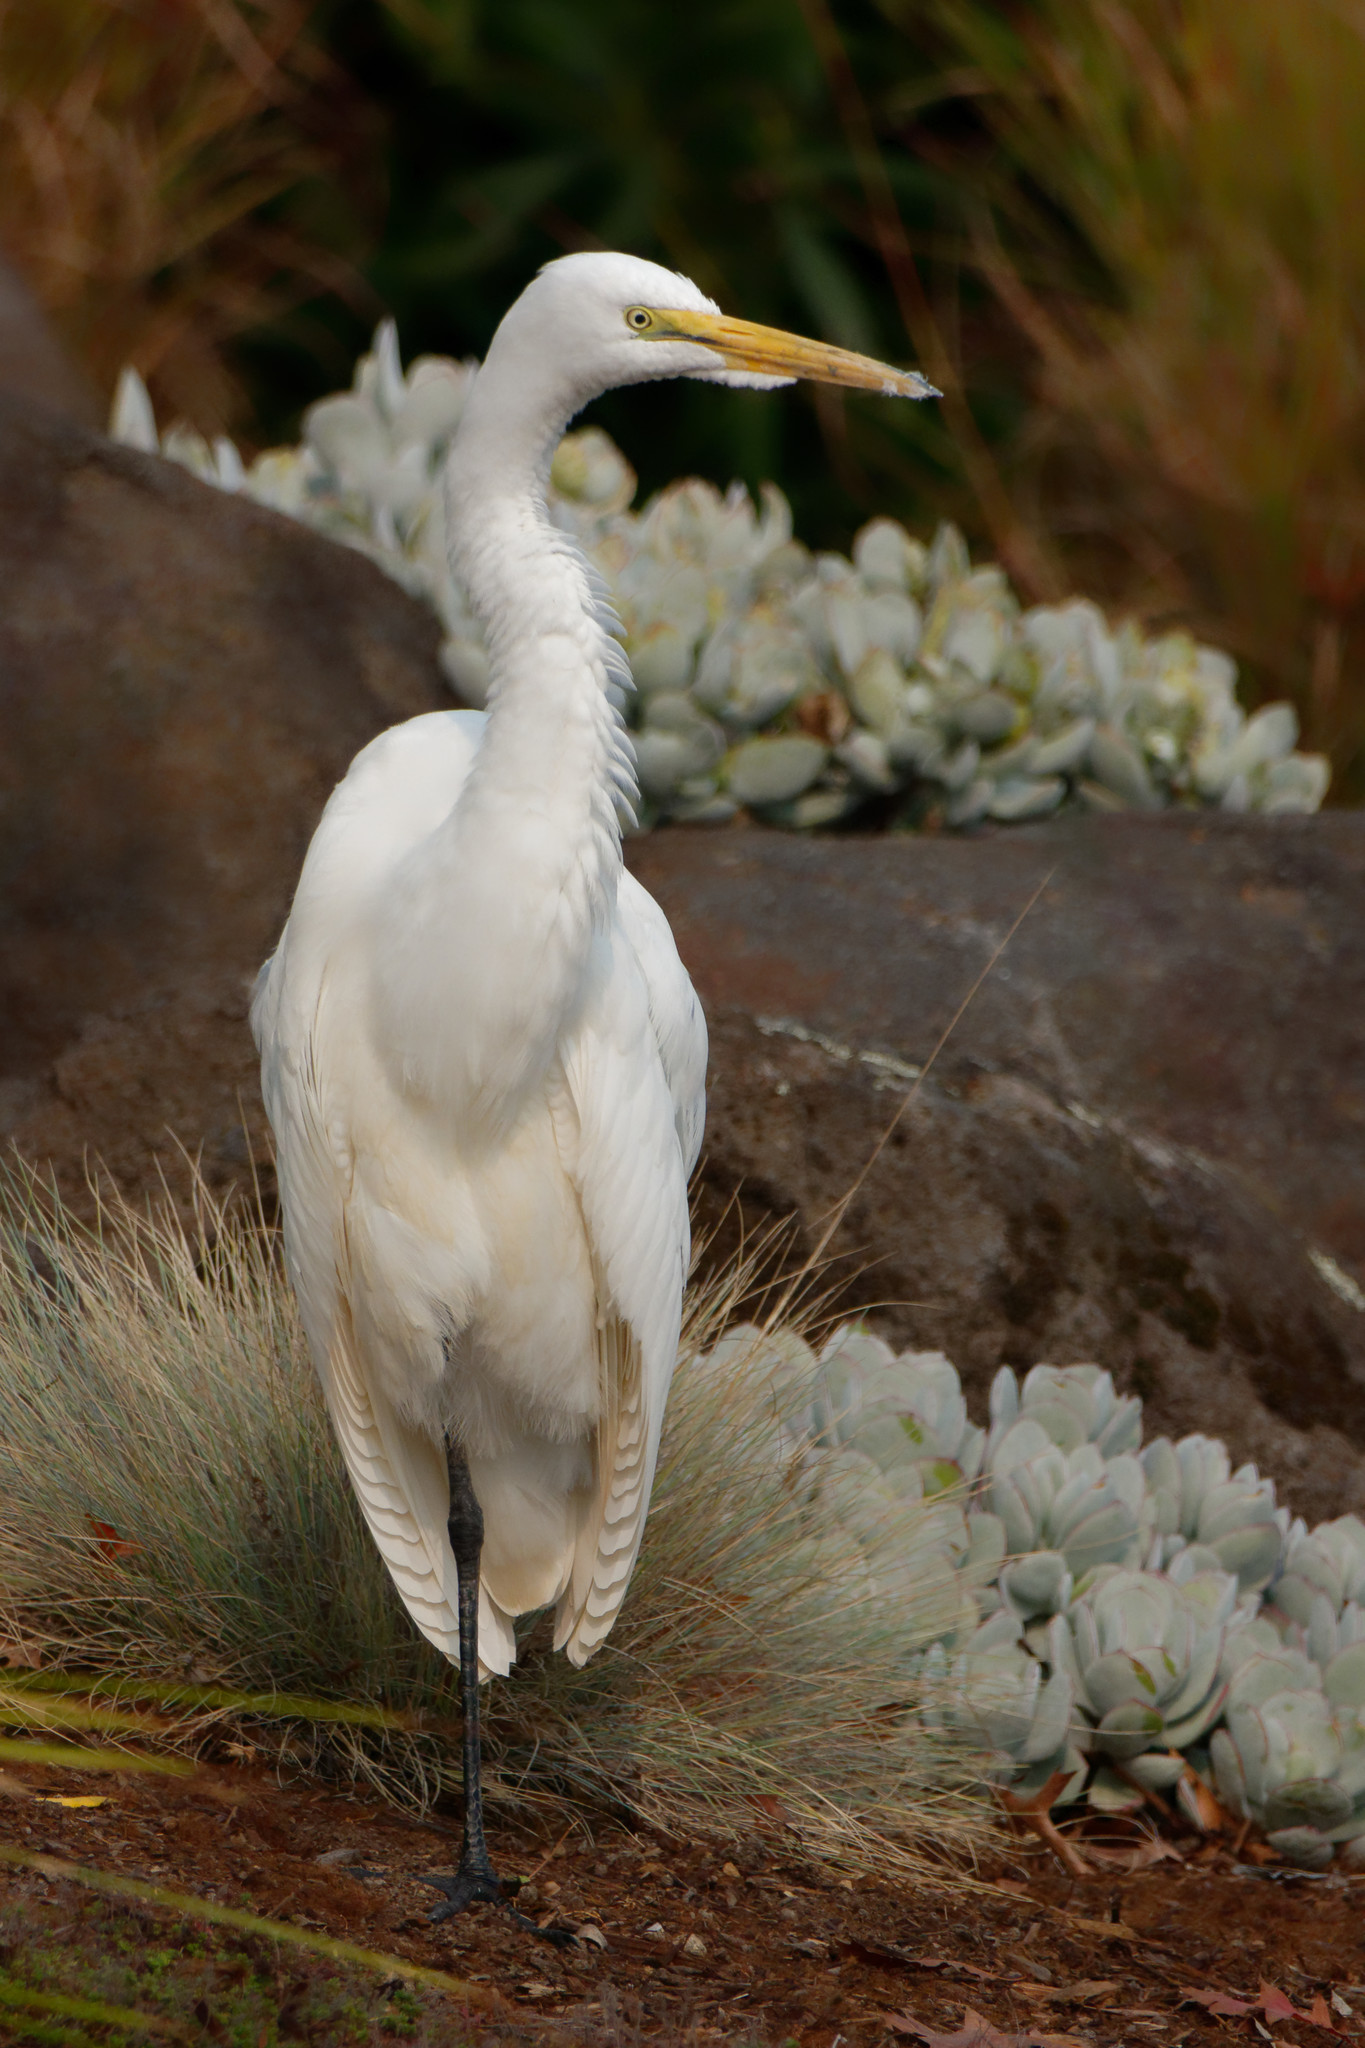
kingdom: Animalia
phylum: Chordata
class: Aves
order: Pelecaniformes
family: Ardeidae
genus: Ardea
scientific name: Ardea alba
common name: Great egret
